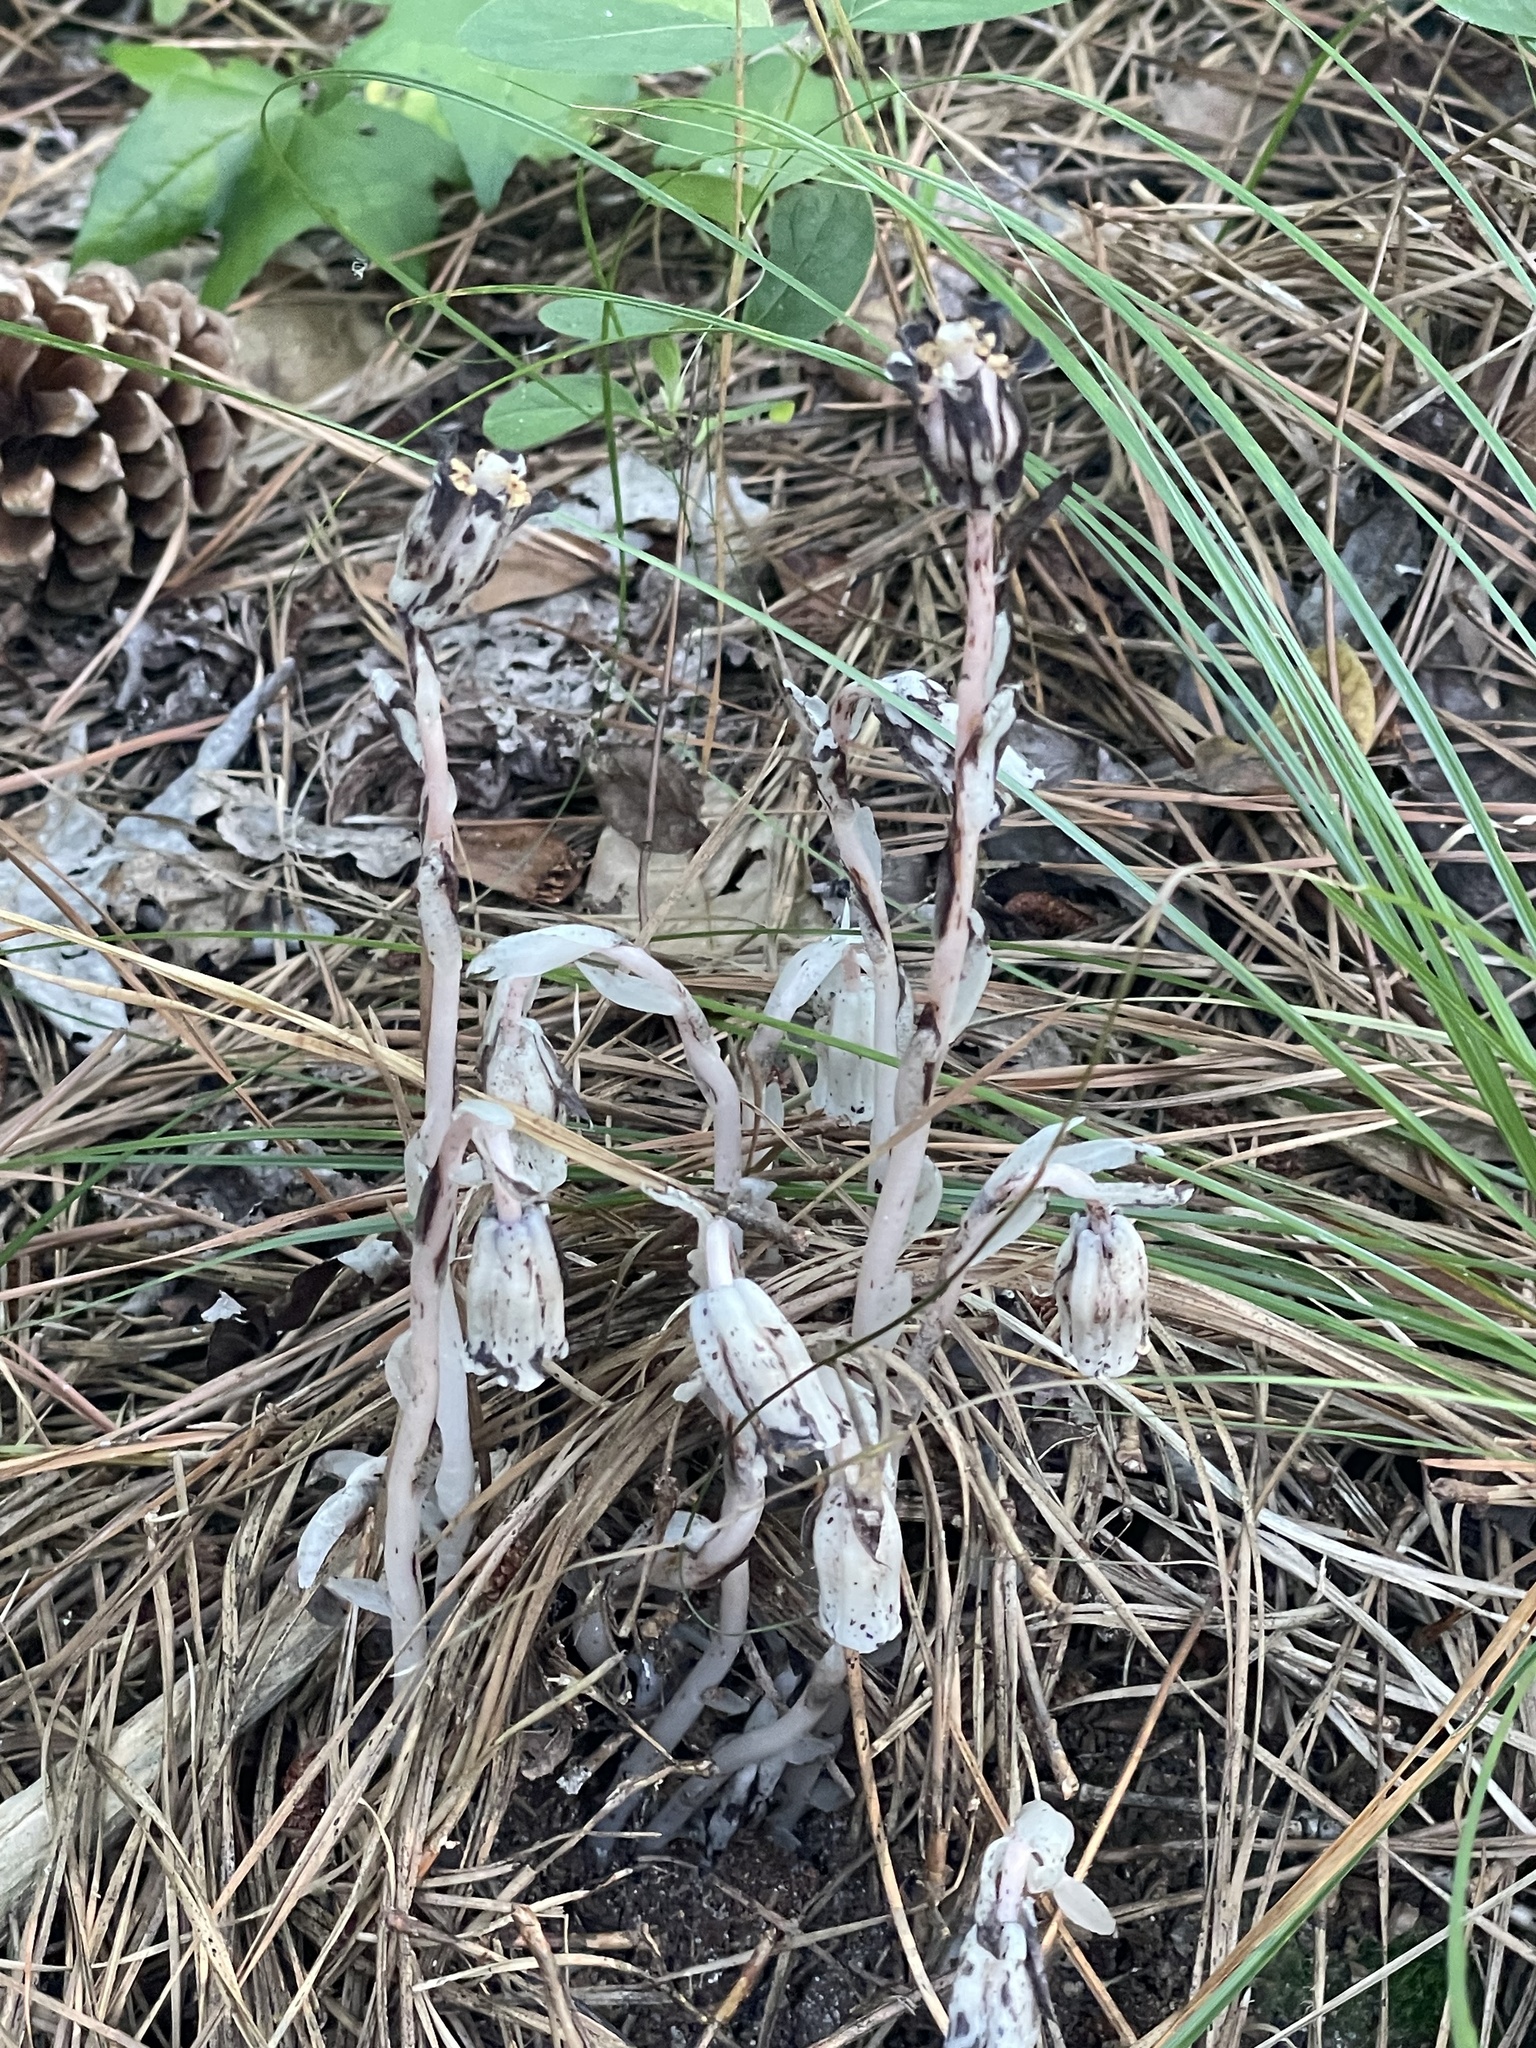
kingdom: Plantae
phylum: Tracheophyta
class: Magnoliopsida
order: Ericales
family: Ericaceae
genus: Monotropa
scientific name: Monotropa uniflora
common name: Convulsion root
